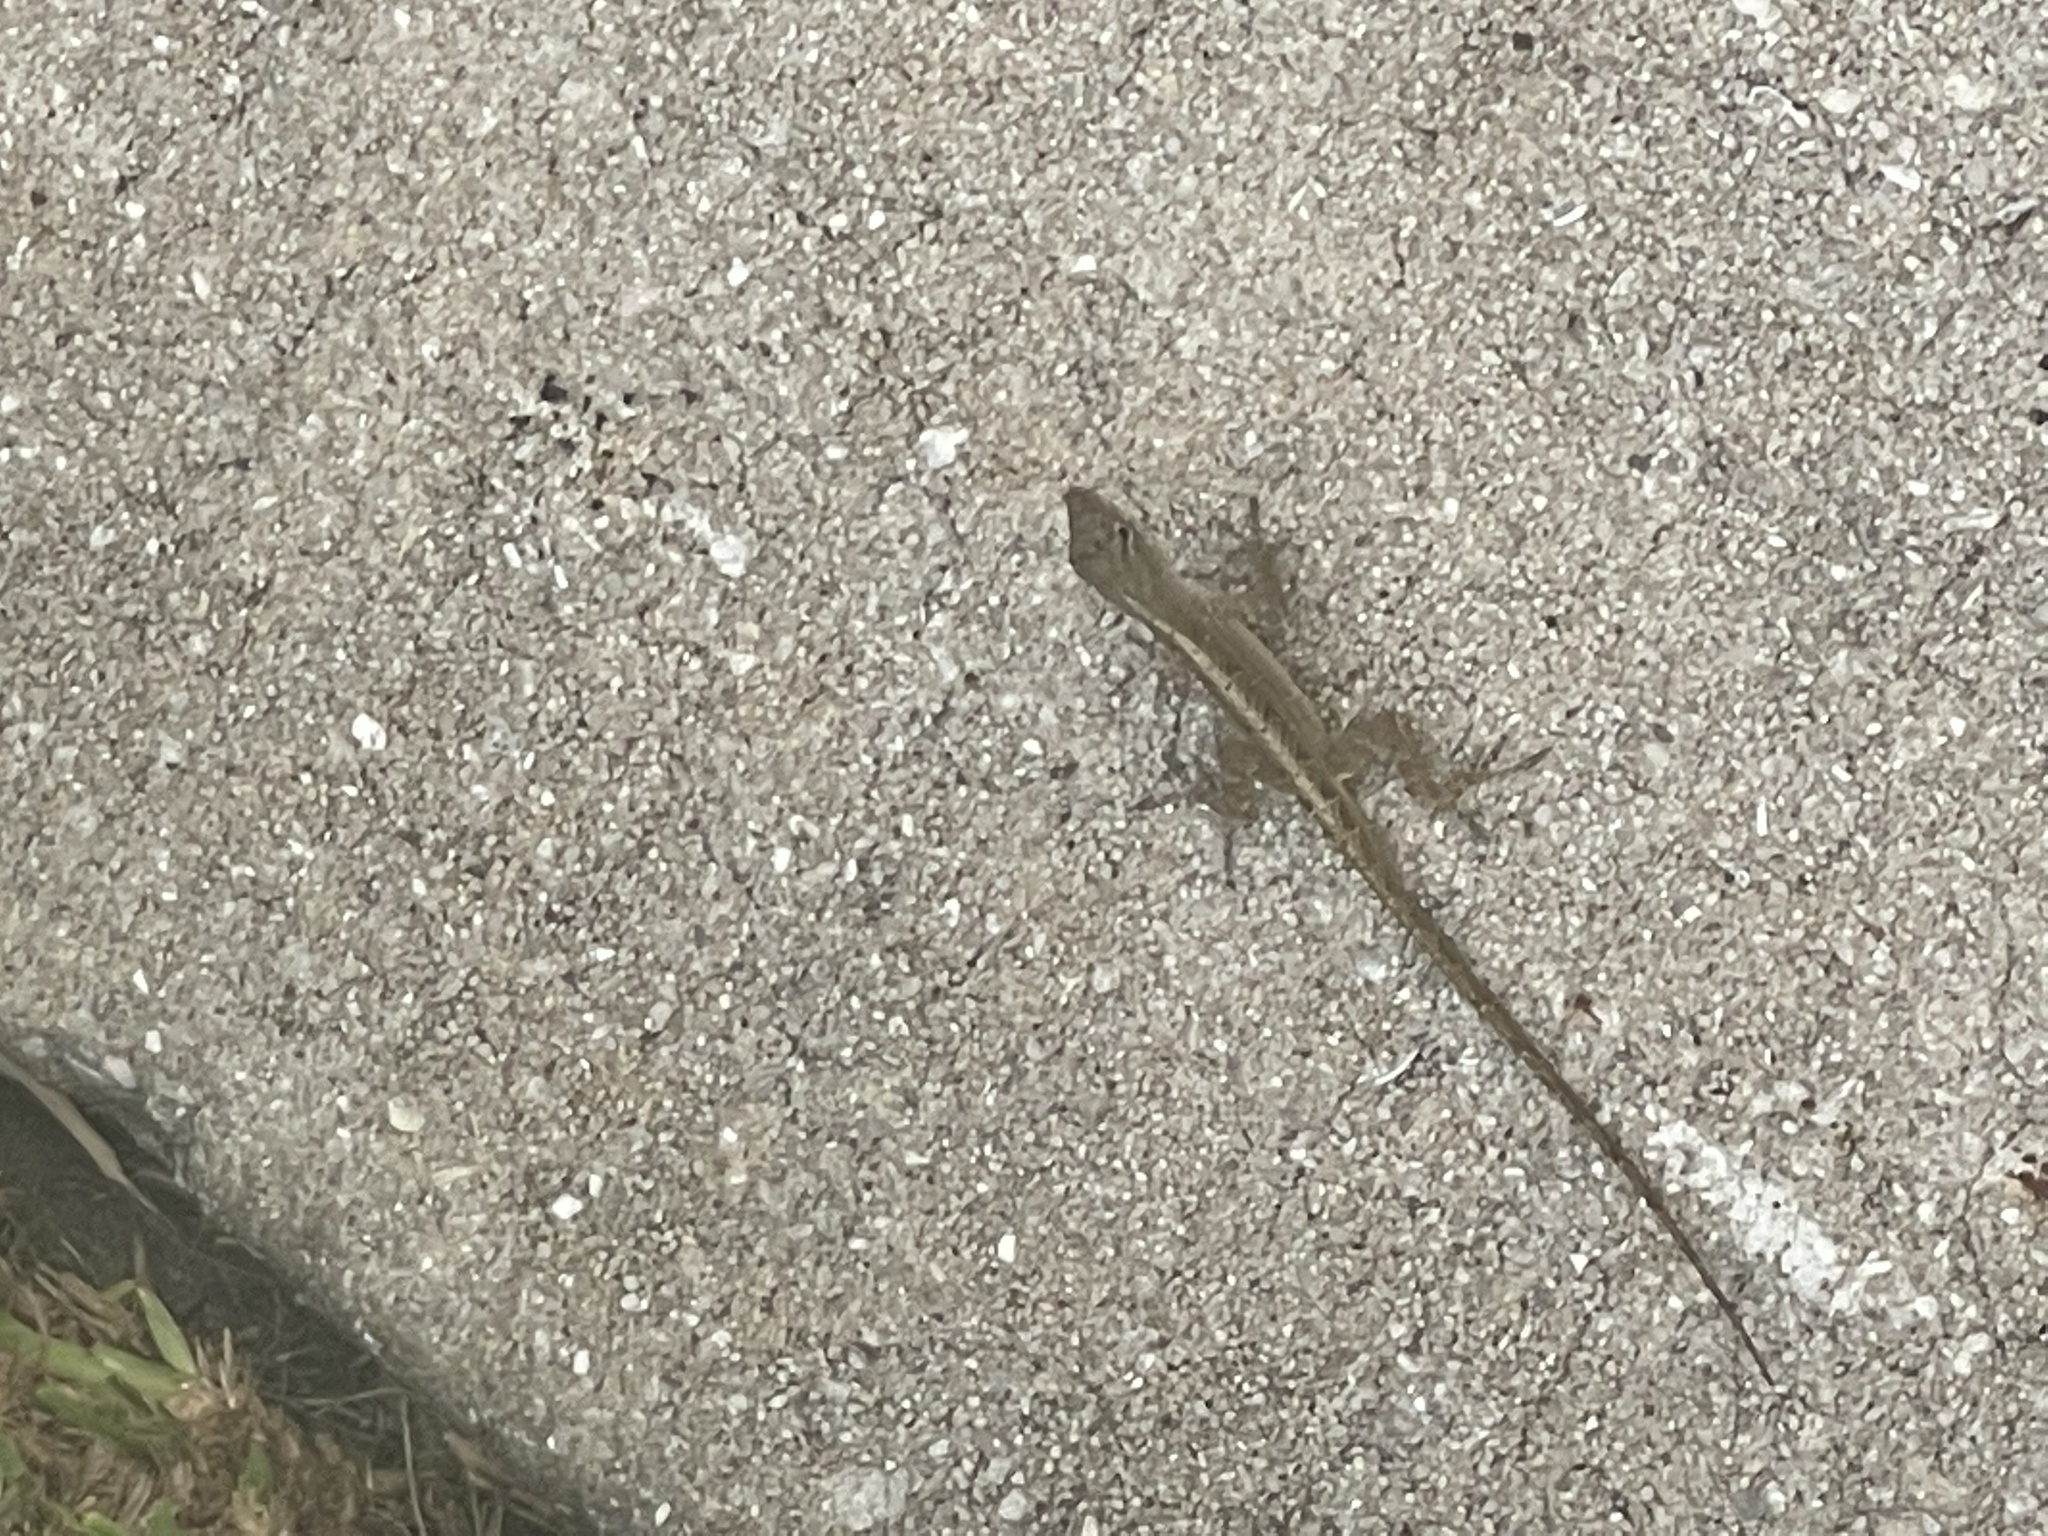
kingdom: Animalia
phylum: Chordata
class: Squamata
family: Dactyloidae
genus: Anolis
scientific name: Anolis sagrei
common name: Brown anole
